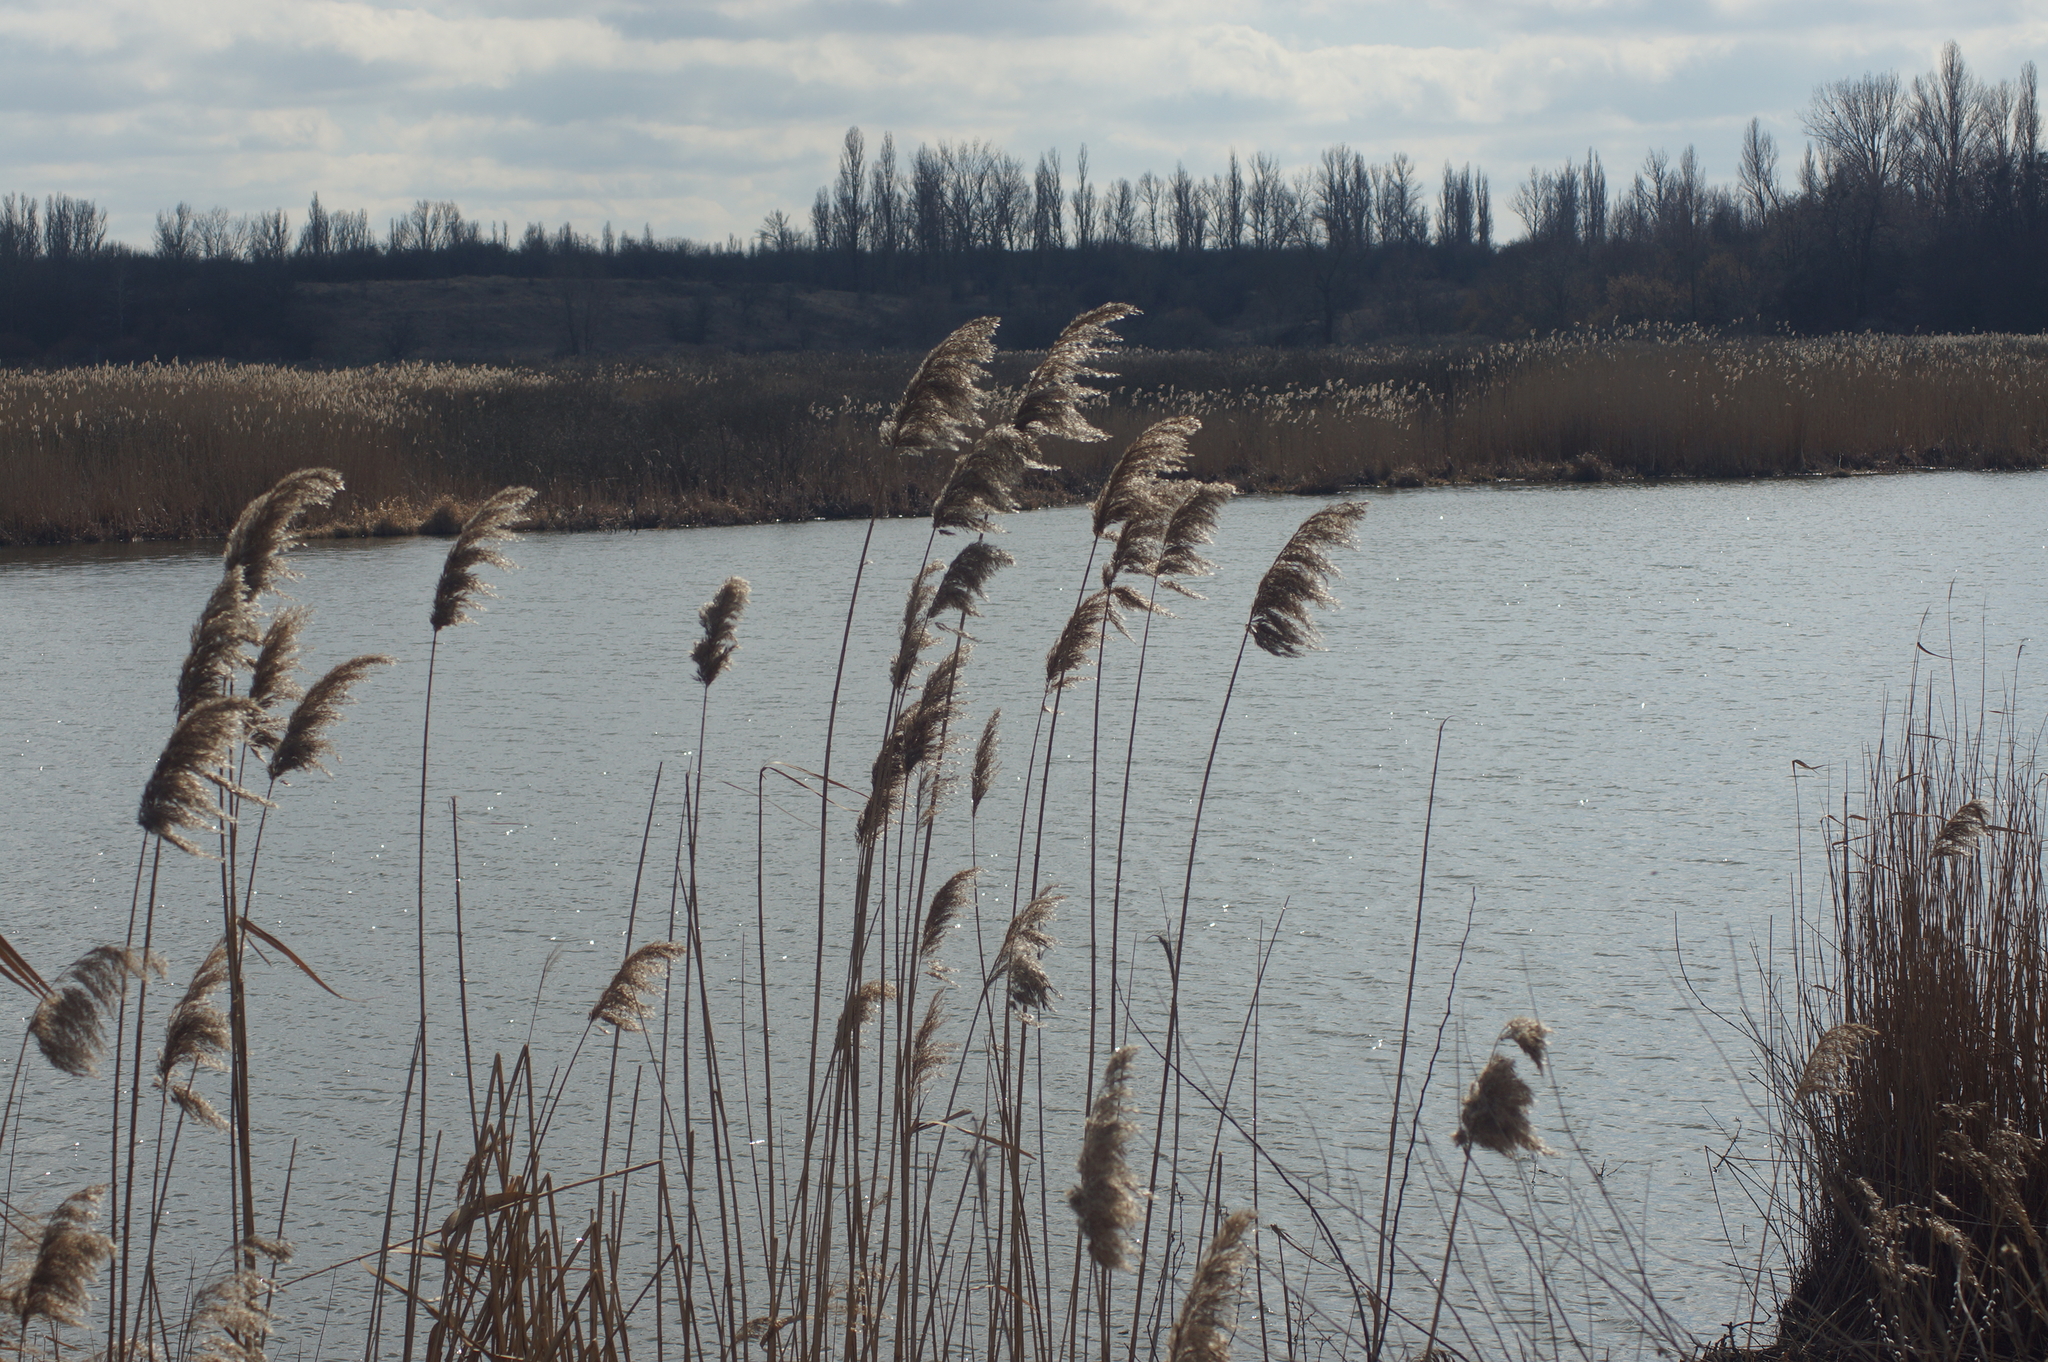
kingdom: Plantae
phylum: Tracheophyta
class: Liliopsida
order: Poales
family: Poaceae
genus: Phragmites
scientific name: Phragmites australis
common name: Common reed
